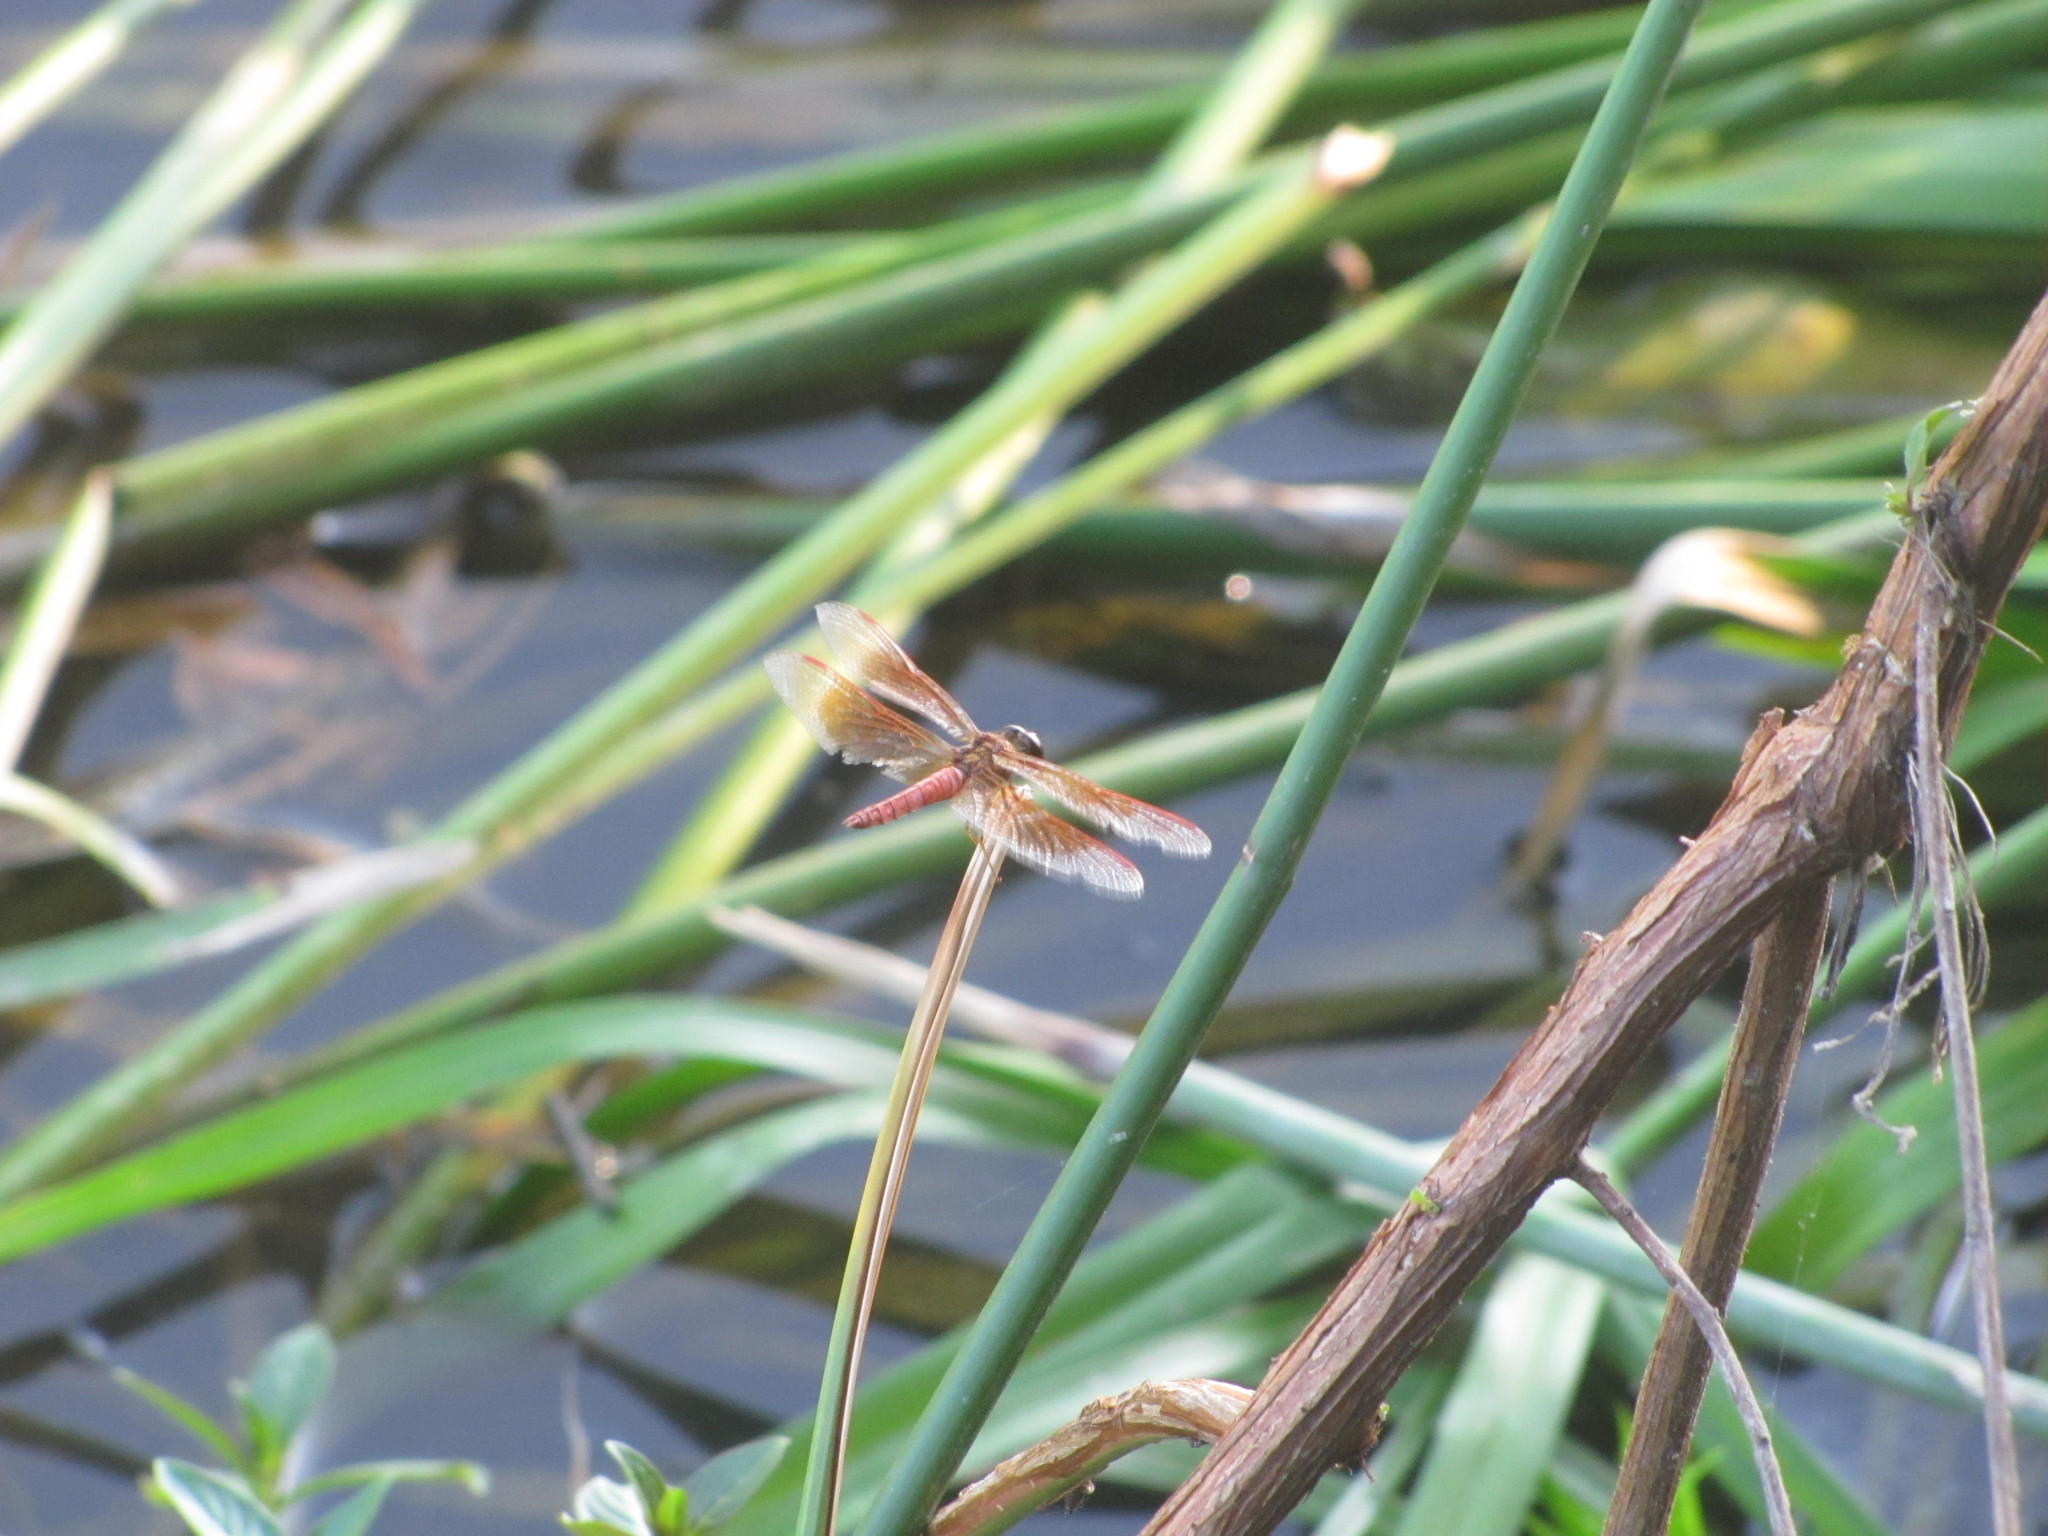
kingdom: Animalia
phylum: Arthropoda
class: Insecta
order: Odonata
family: Libellulidae
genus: Brachythemis
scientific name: Brachythemis contaminata
